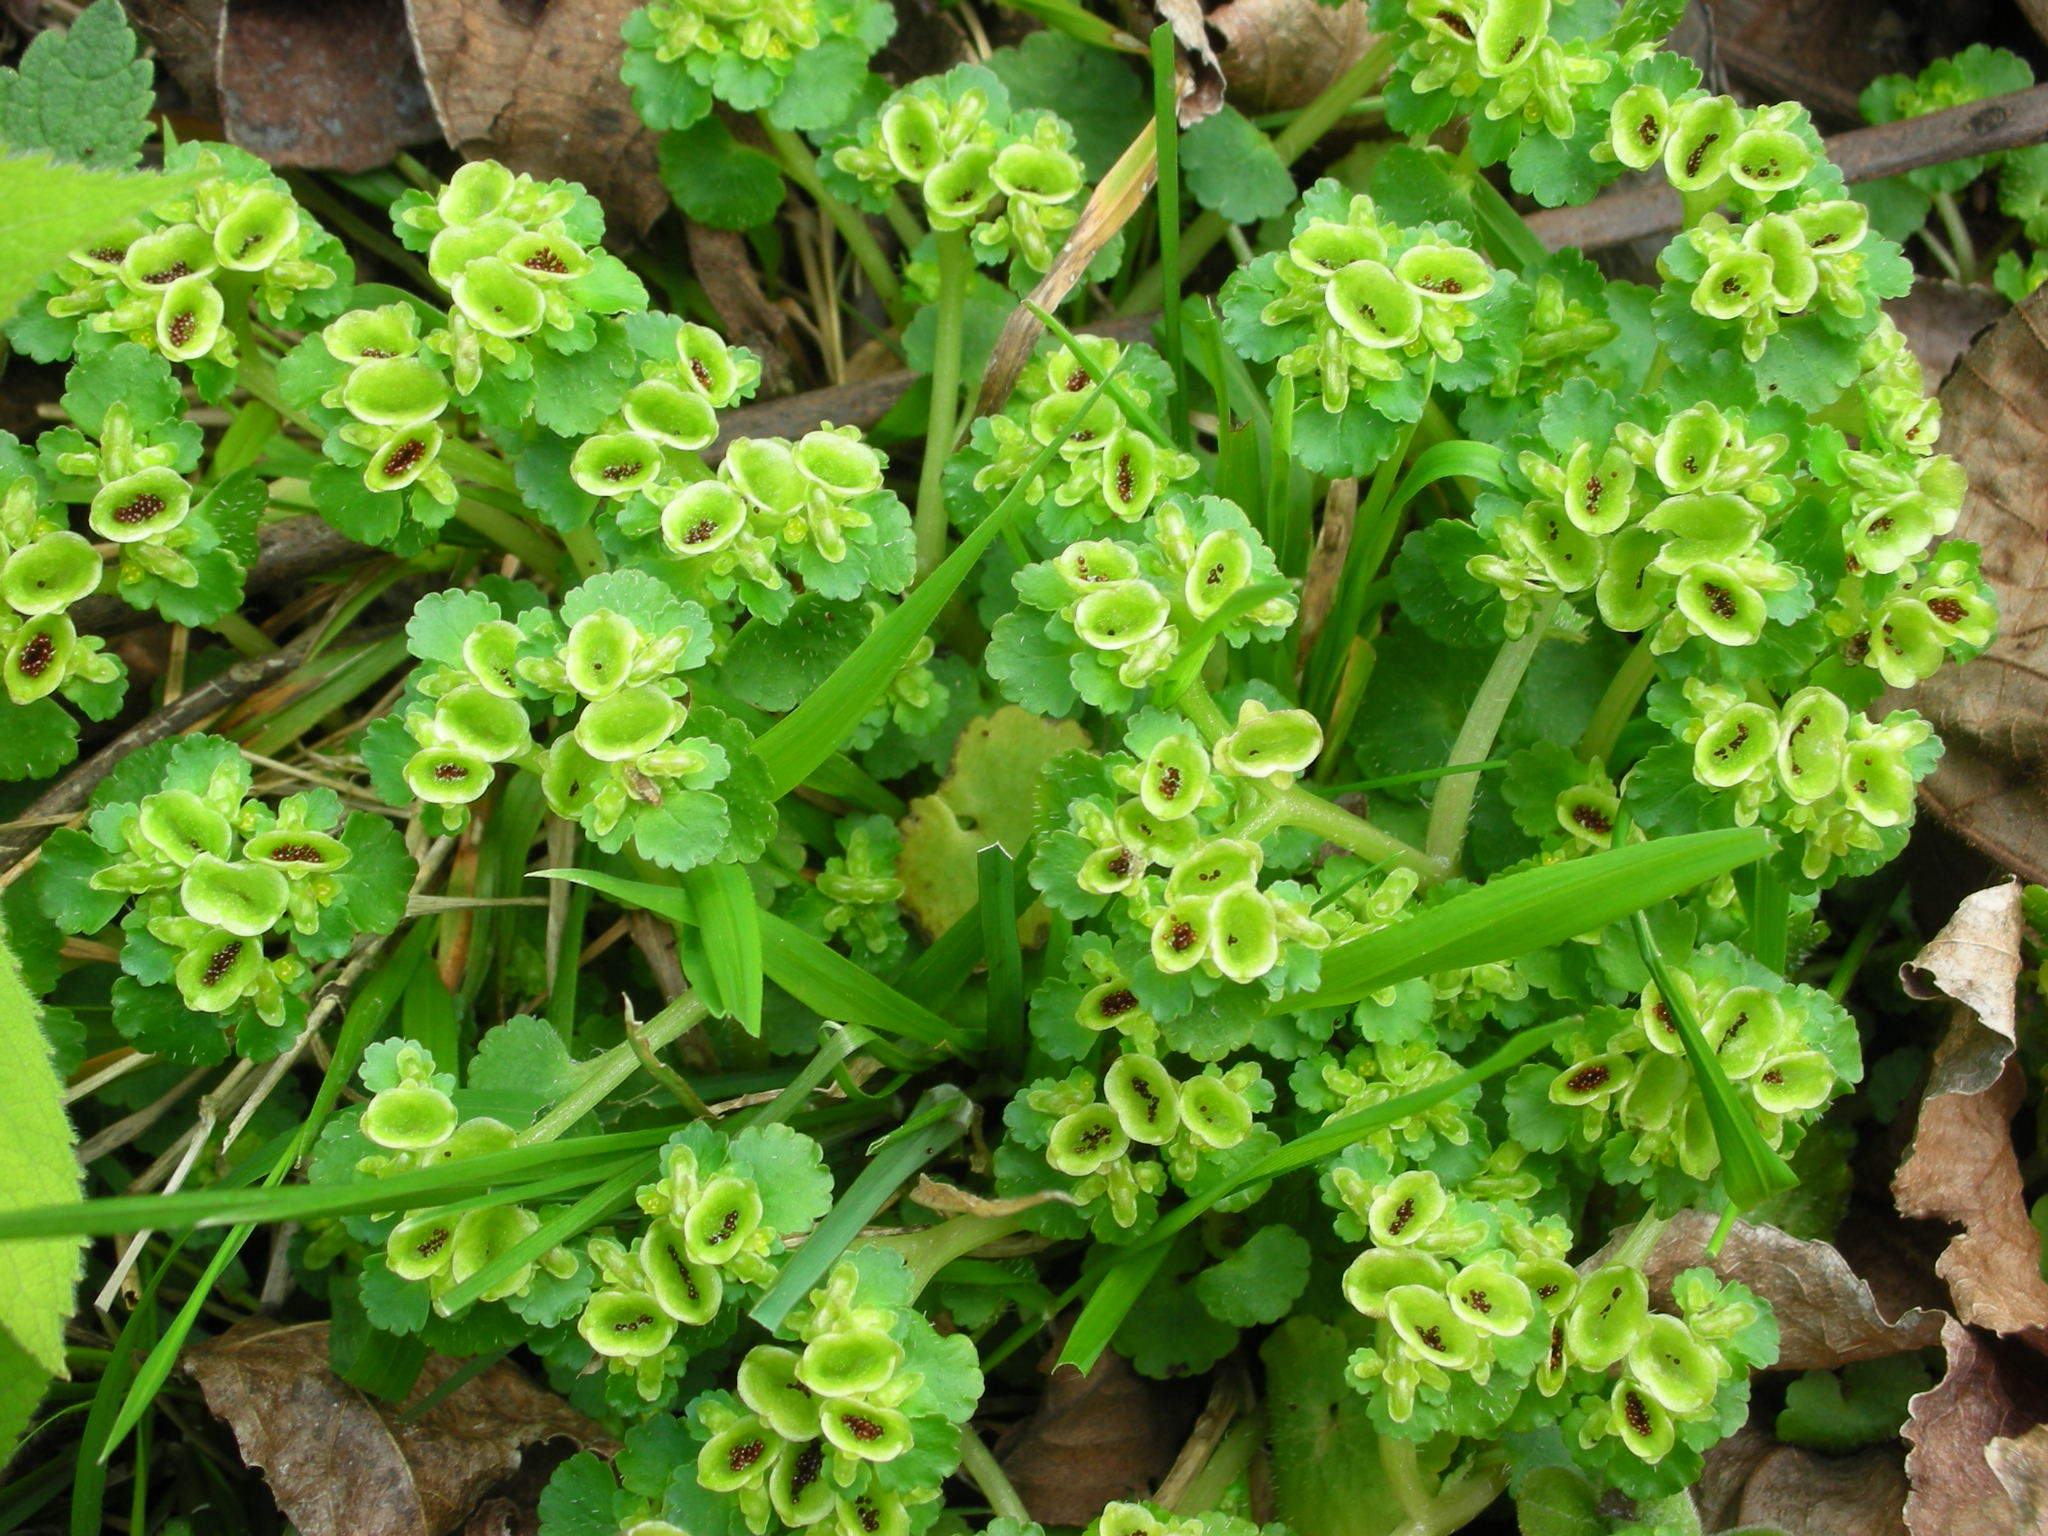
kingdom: Plantae
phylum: Tracheophyta
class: Magnoliopsida
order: Saxifragales
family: Saxifragaceae
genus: Chrysosplenium
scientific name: Chrysosplenium japonicum
